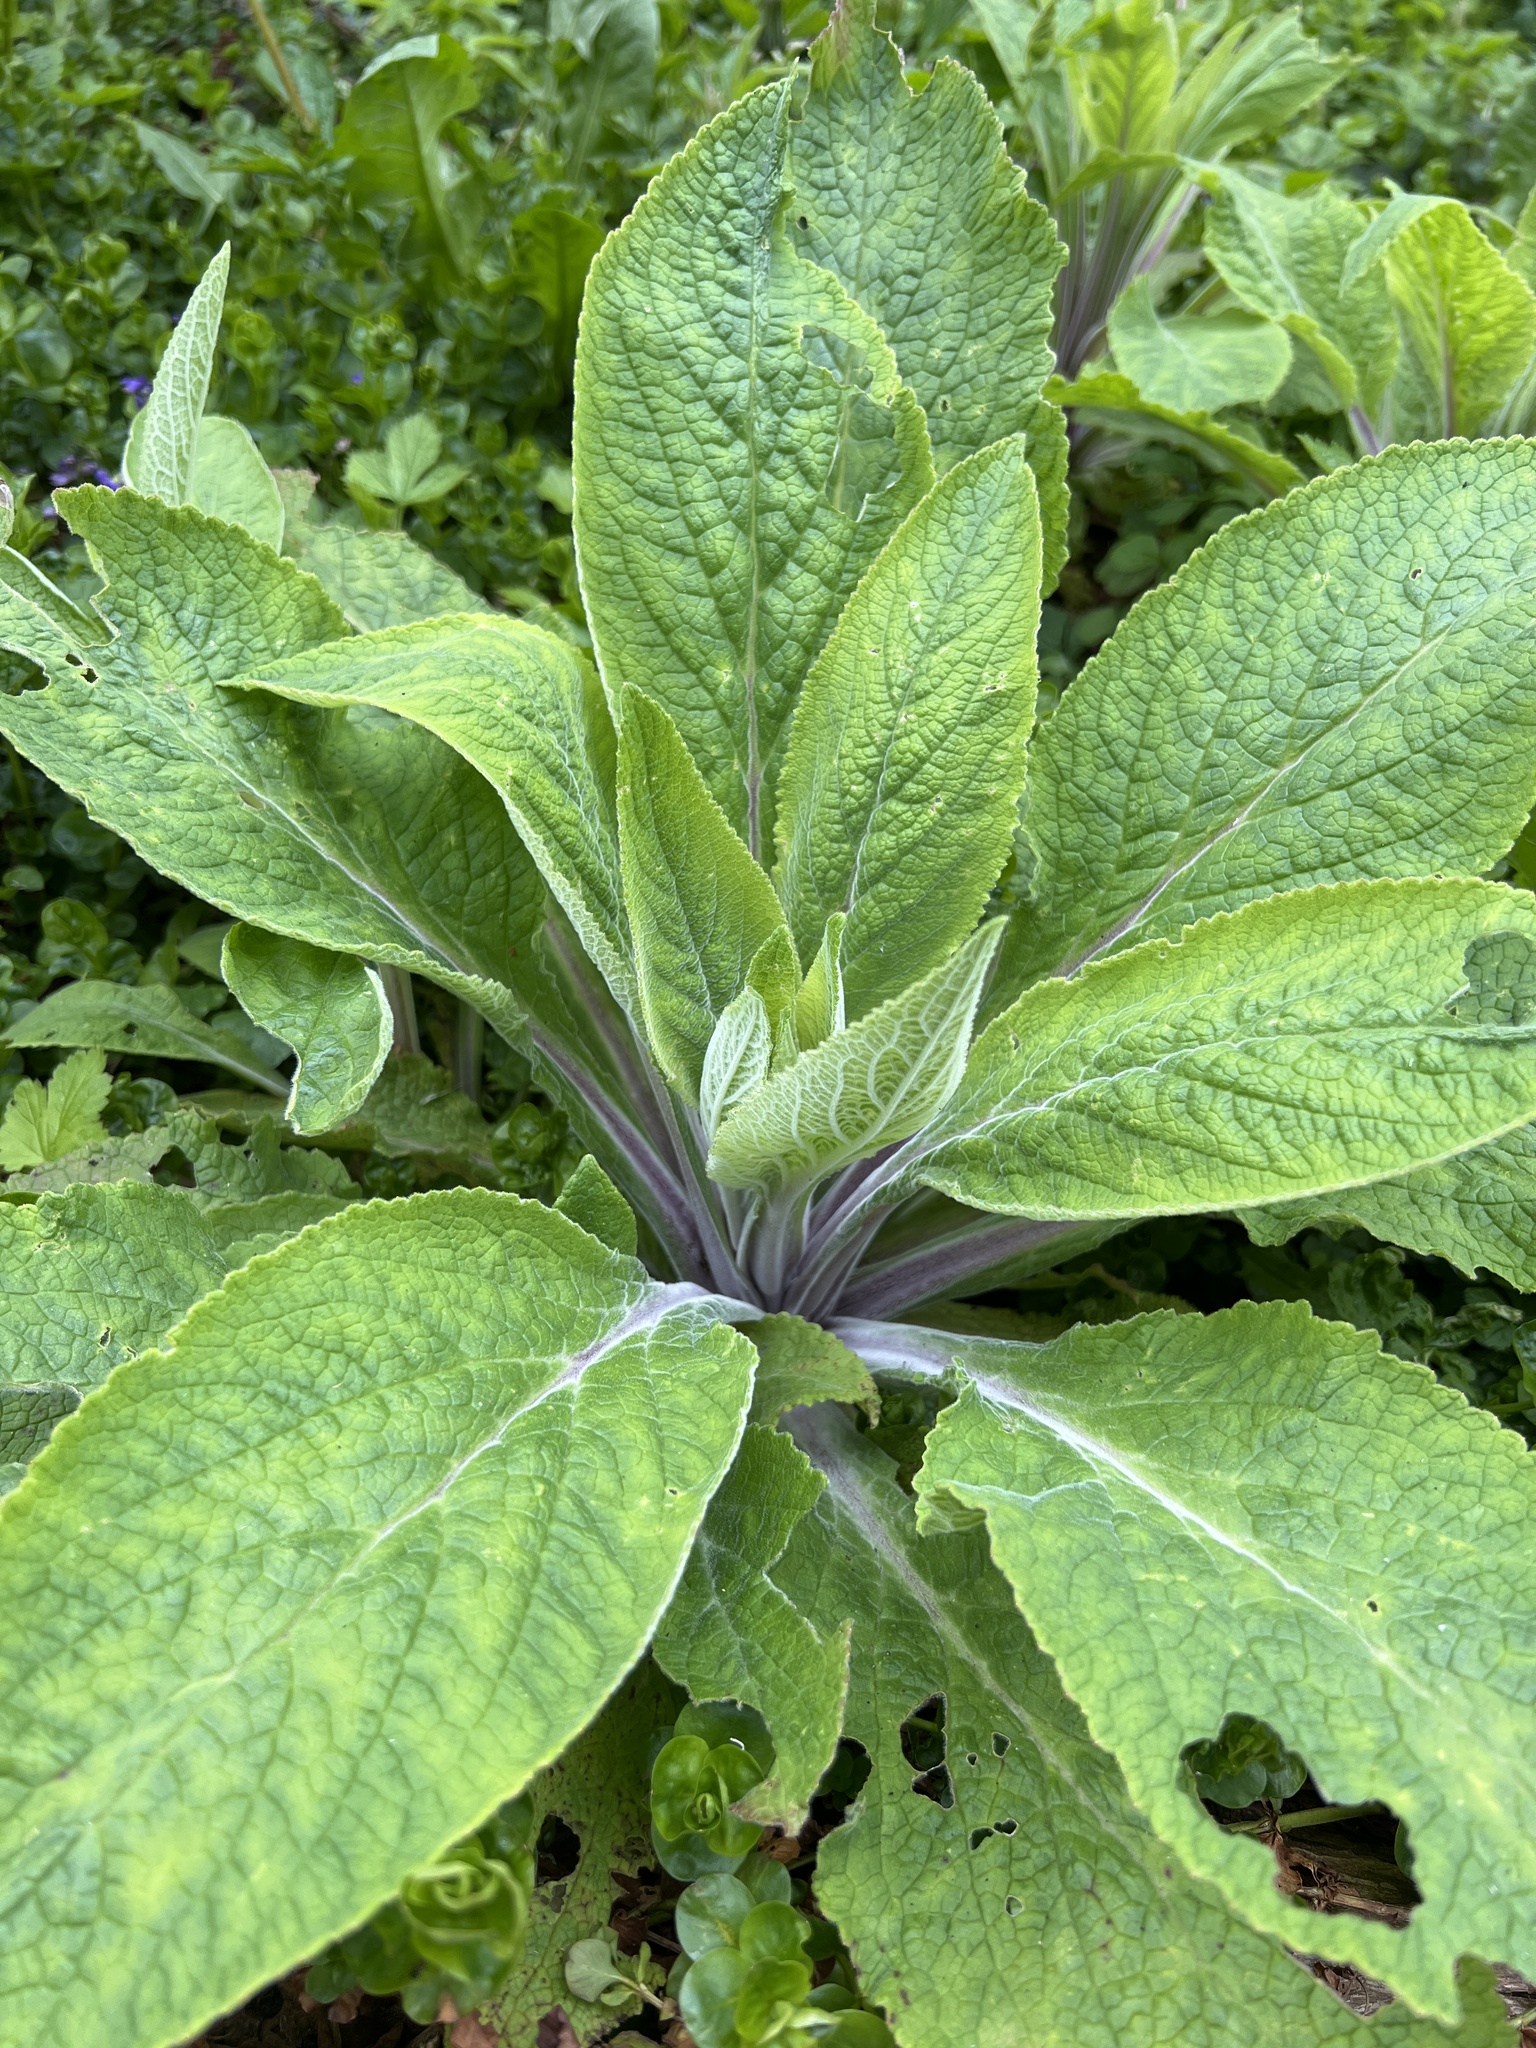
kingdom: Plantae
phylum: Tracheophyta
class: Magnoliopsida
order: Lamiales
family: Plantaginaceae
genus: Digitalis
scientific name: Digitalis purpurea
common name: Foxglove
